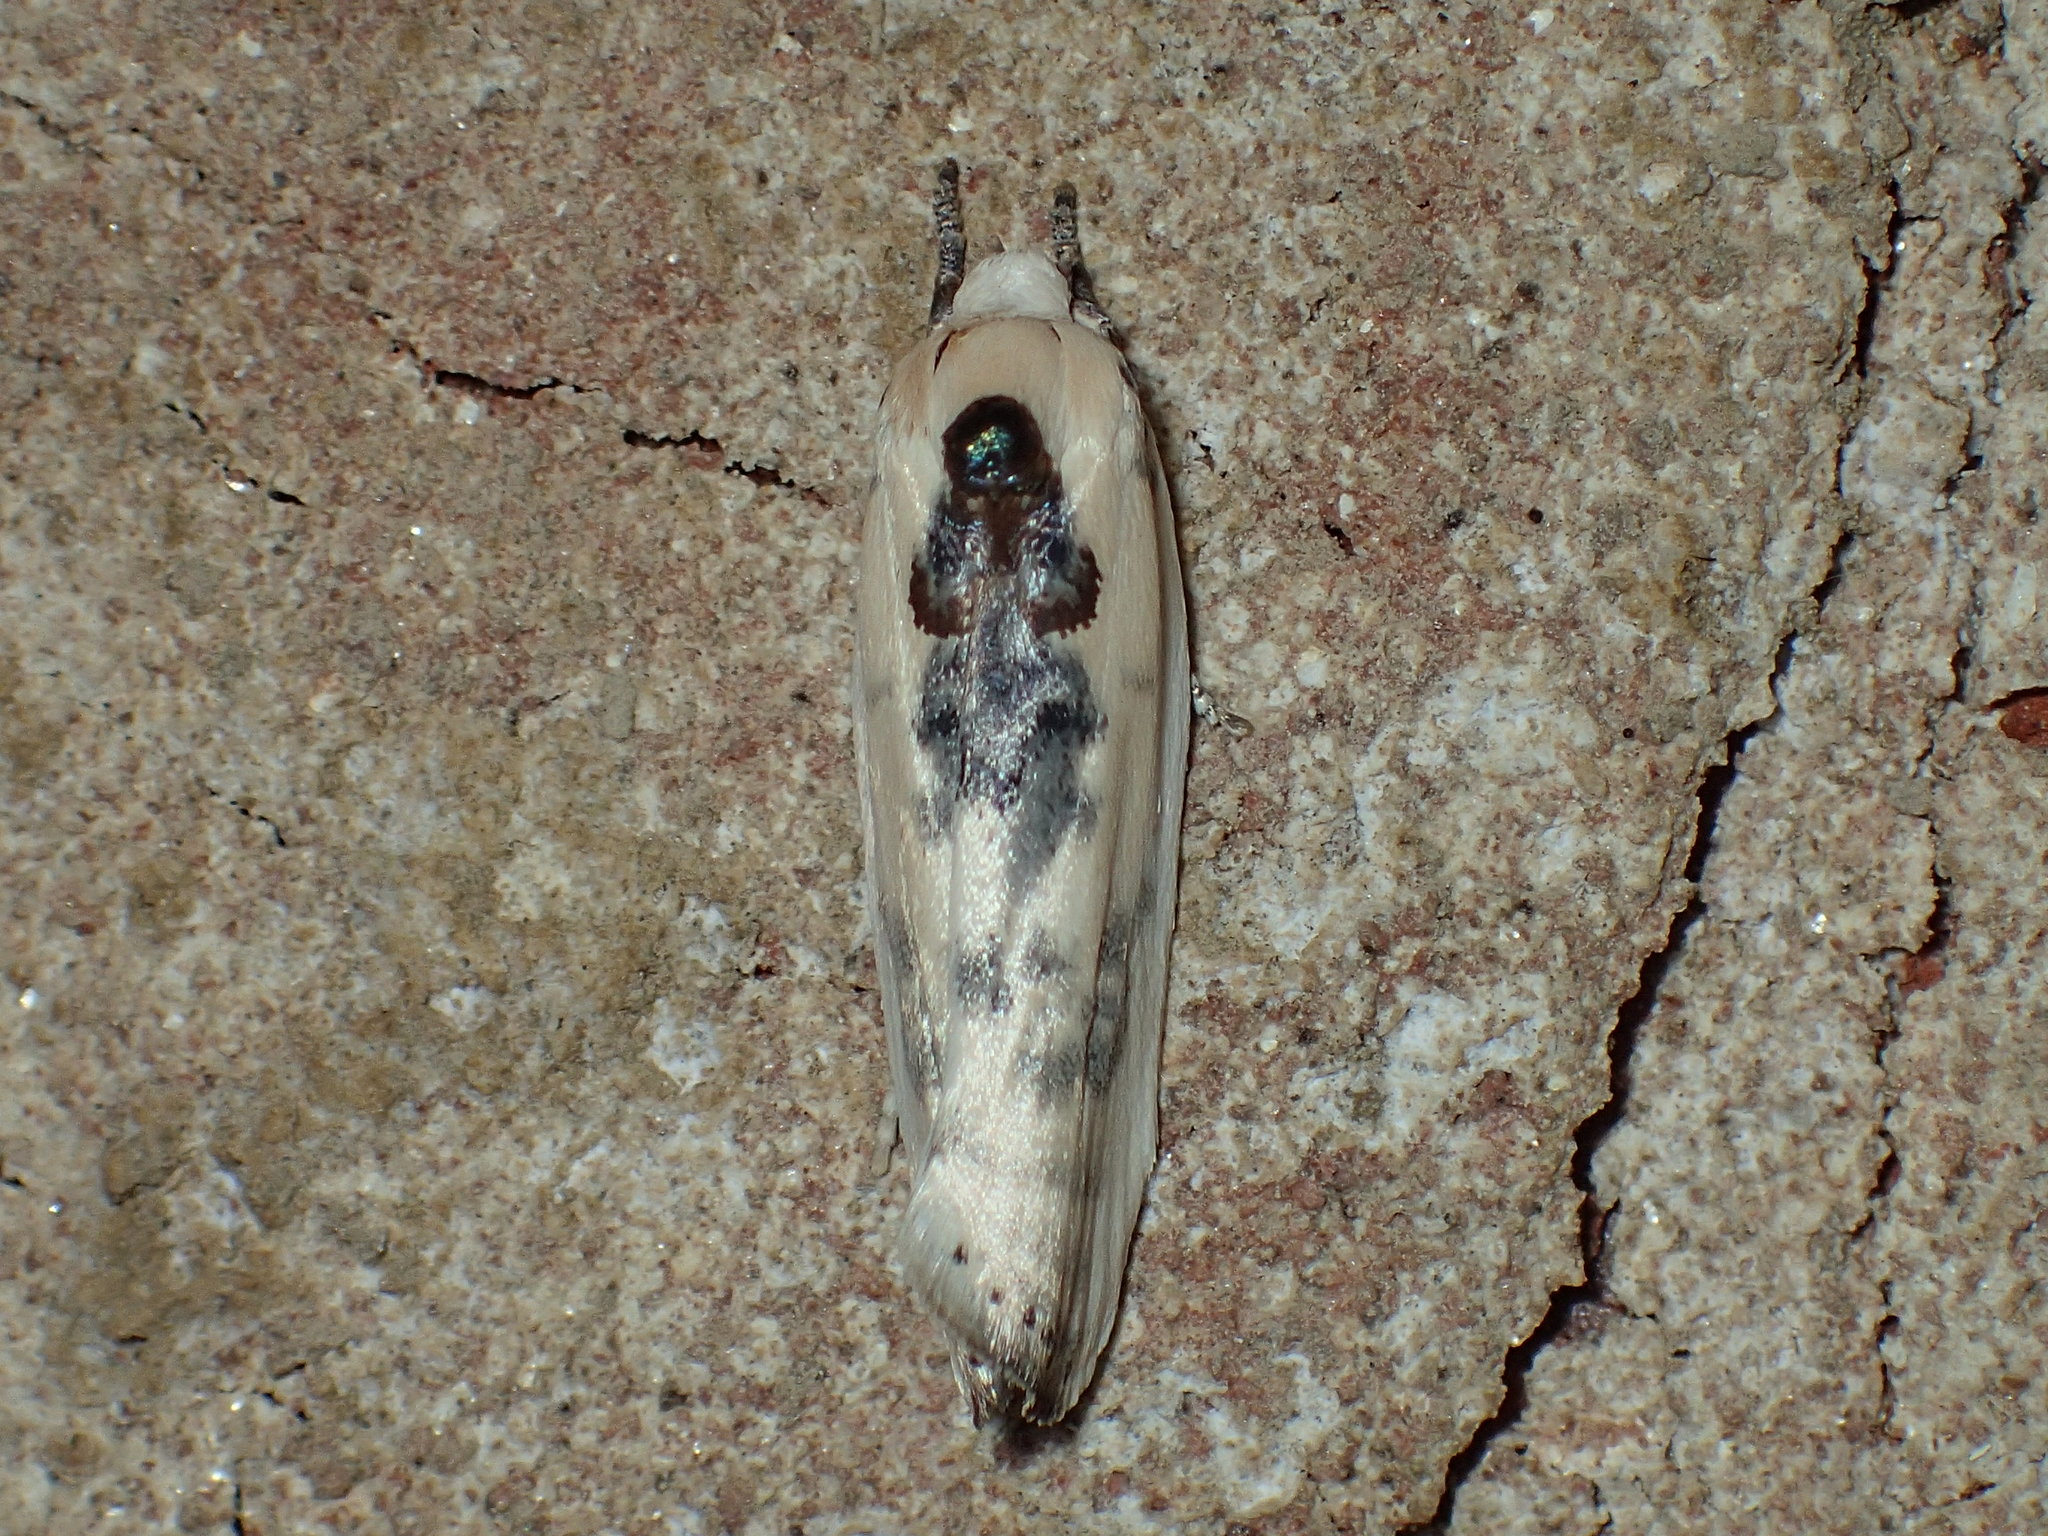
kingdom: Animalia
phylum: Arthropoda
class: Insecta
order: Lepidoptera
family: Depressariidae
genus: Antaeotricha
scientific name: Antaeotricha schlaegeri
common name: Schlaeger's fruitworm moth
